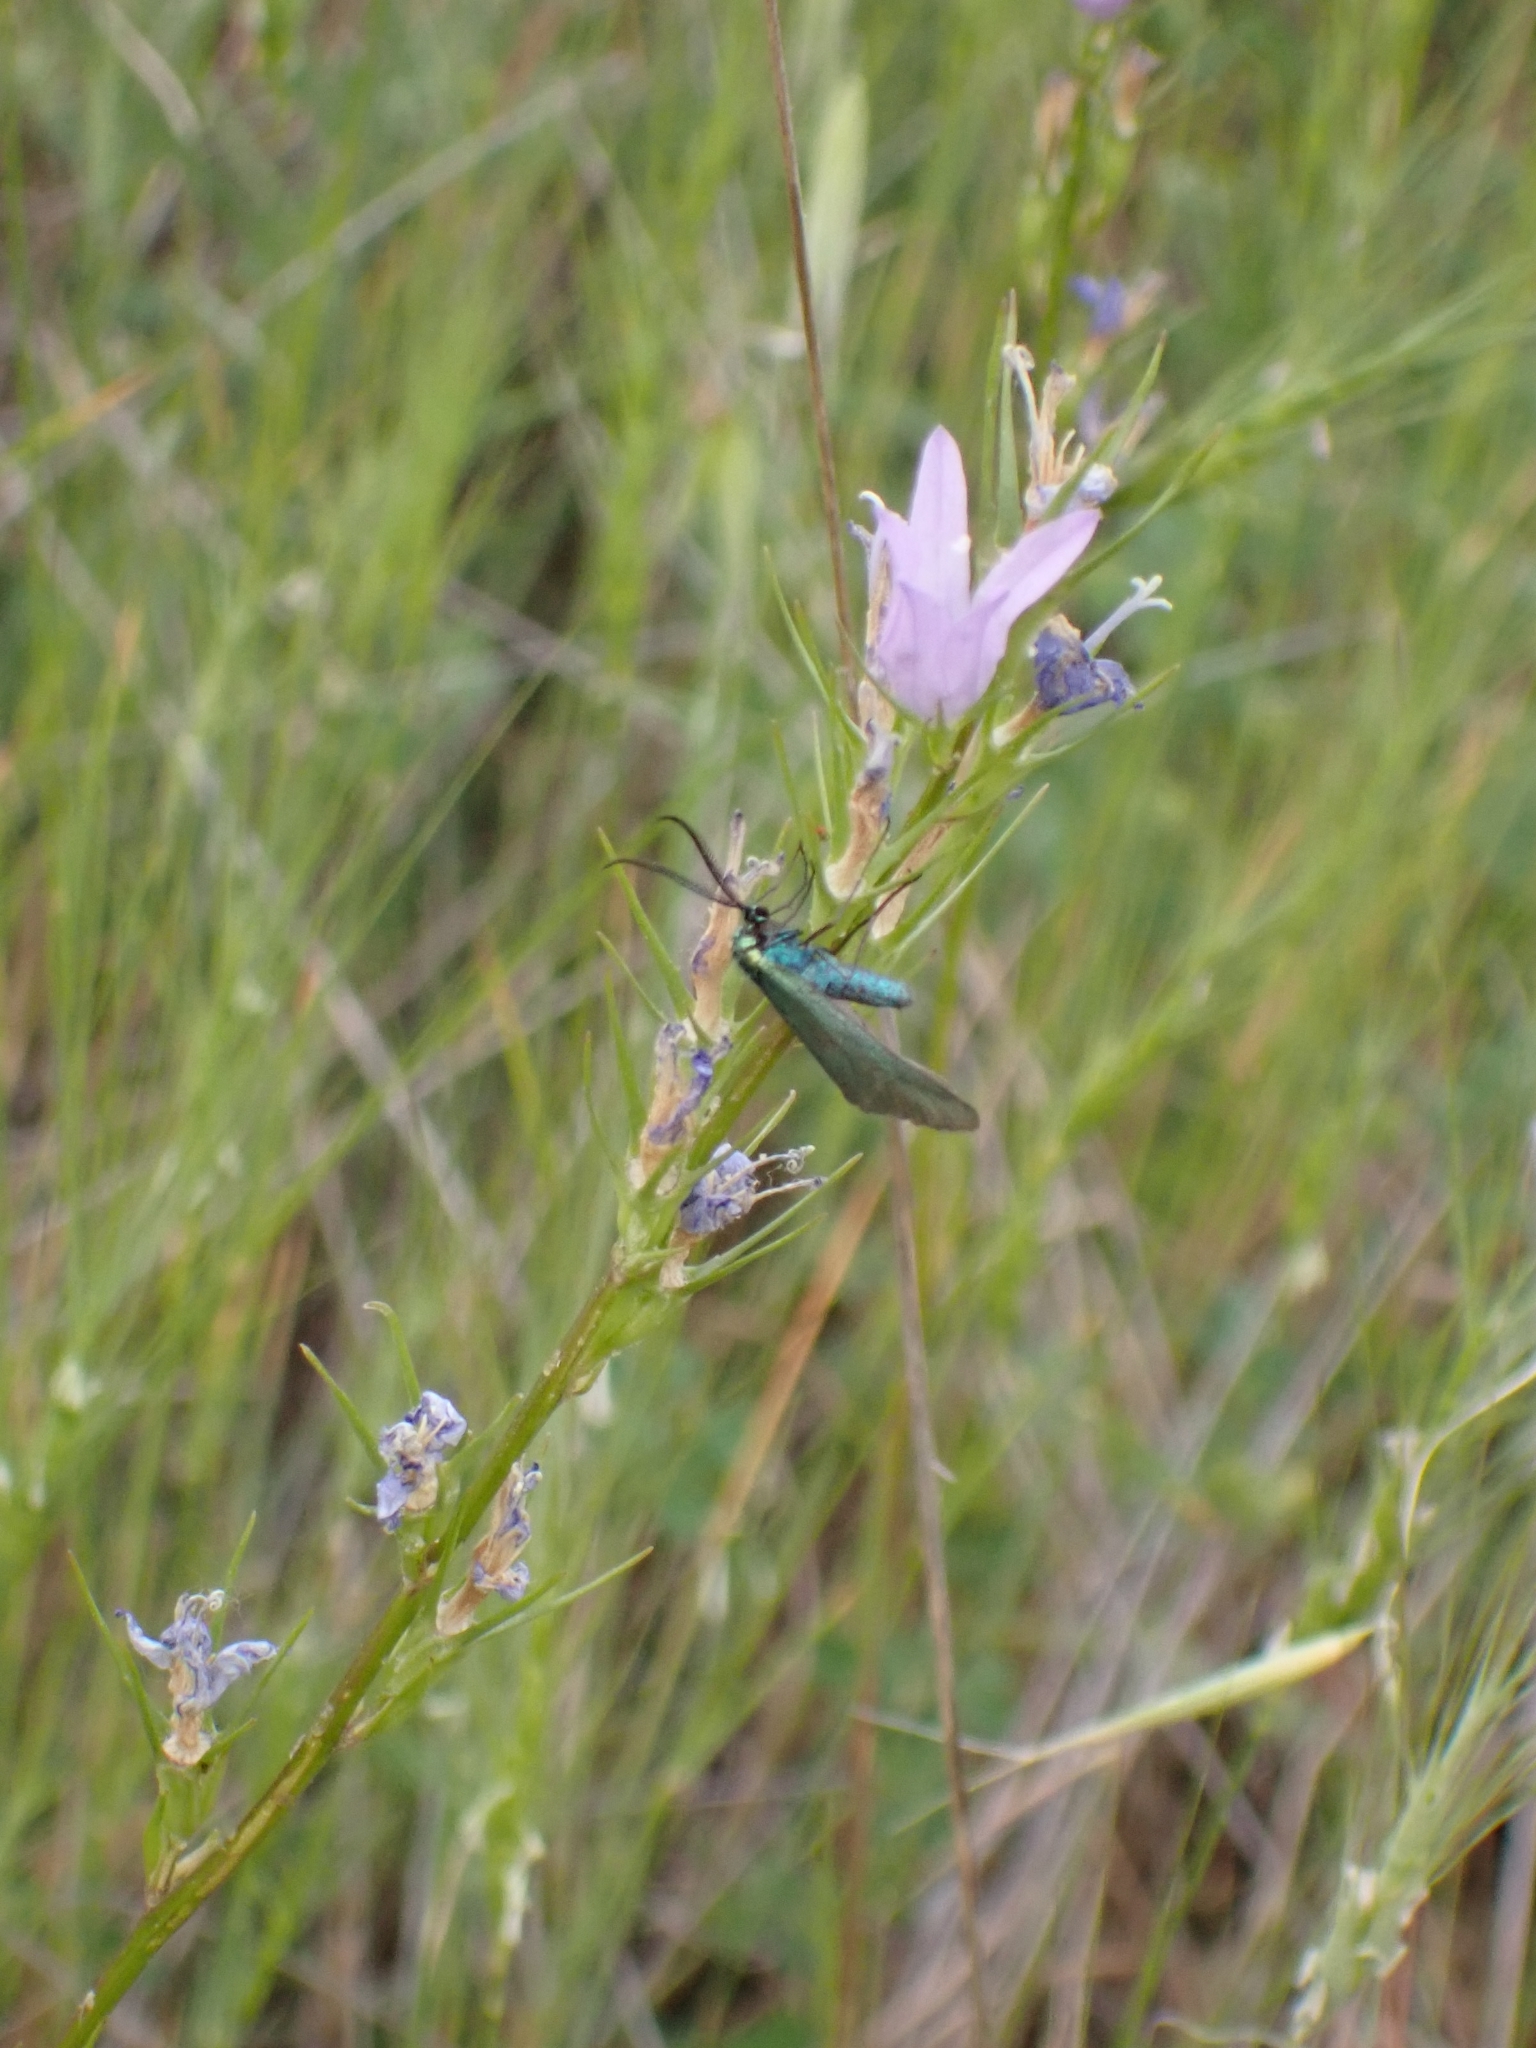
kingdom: Plantae
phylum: Tracheophyta
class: Magnoliopsida
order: Asterales
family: Campanulaceae
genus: Campanula
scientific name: Campanula rapunculus
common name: Rampion bellflower
